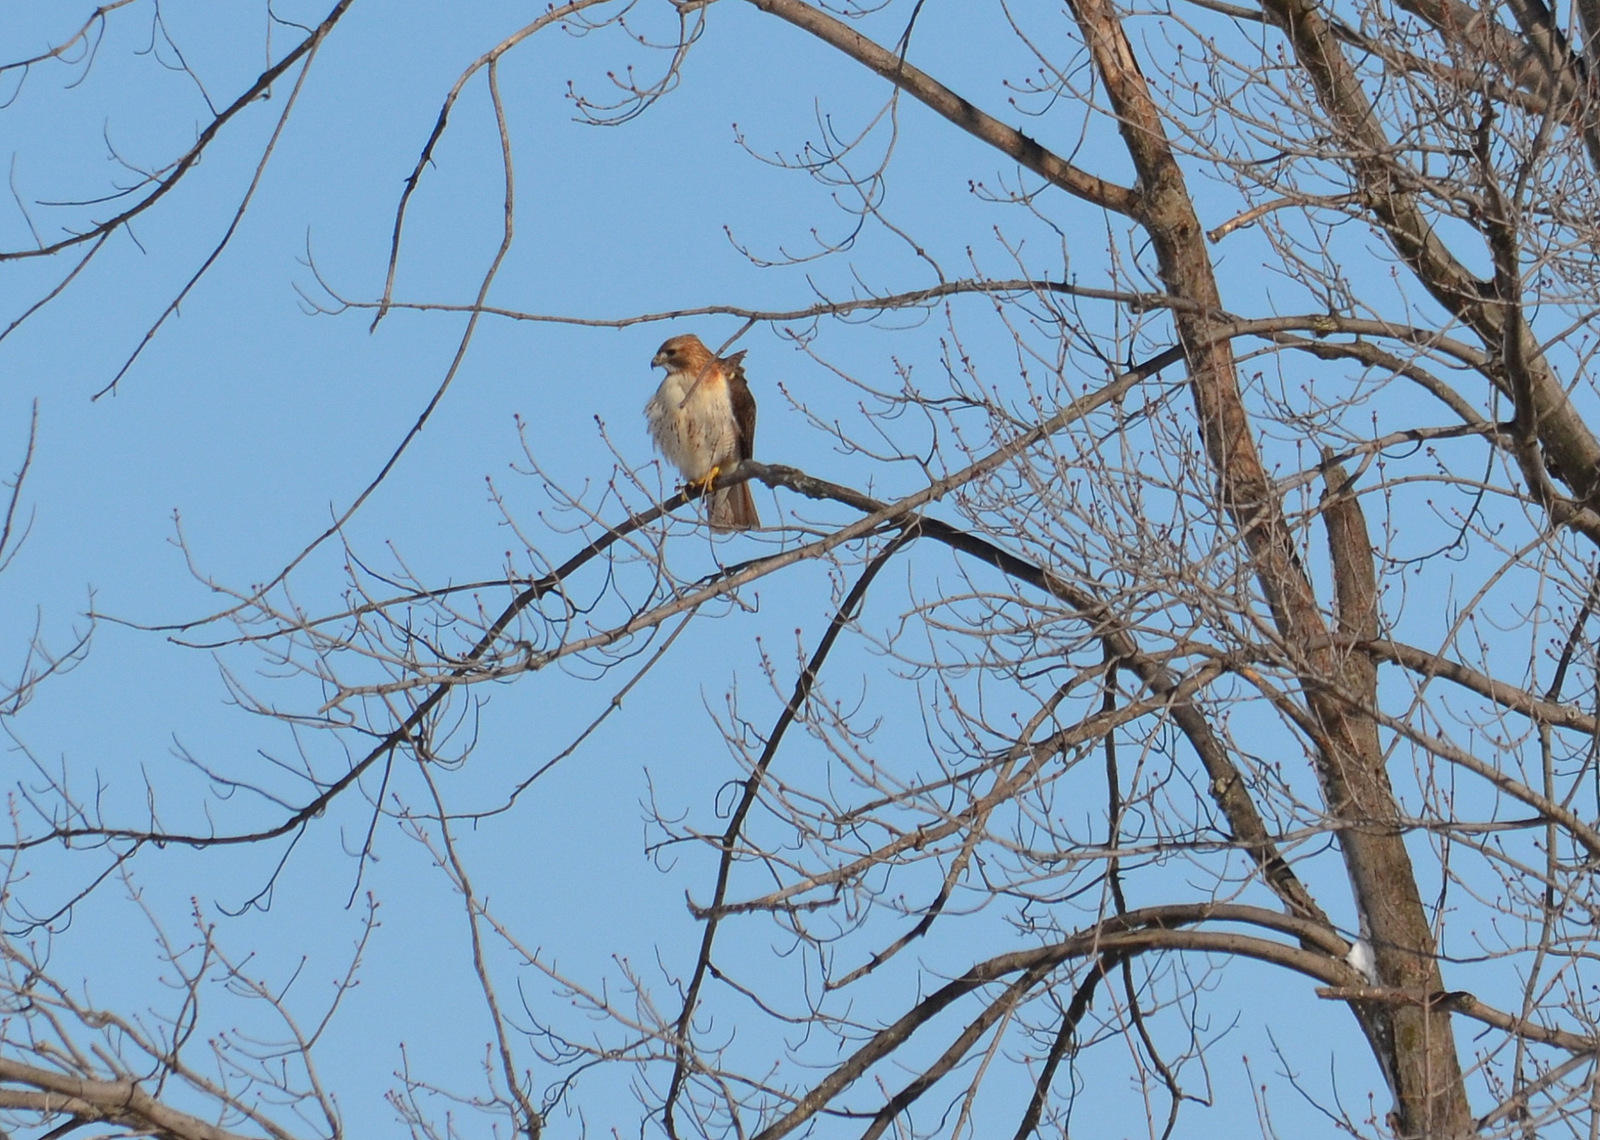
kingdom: Animalia
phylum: Chordata
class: Aves
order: Accipitriformes
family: Accipitridae
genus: Buteo
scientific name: Buteo jamaicensis
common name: Red-tailed hawk
